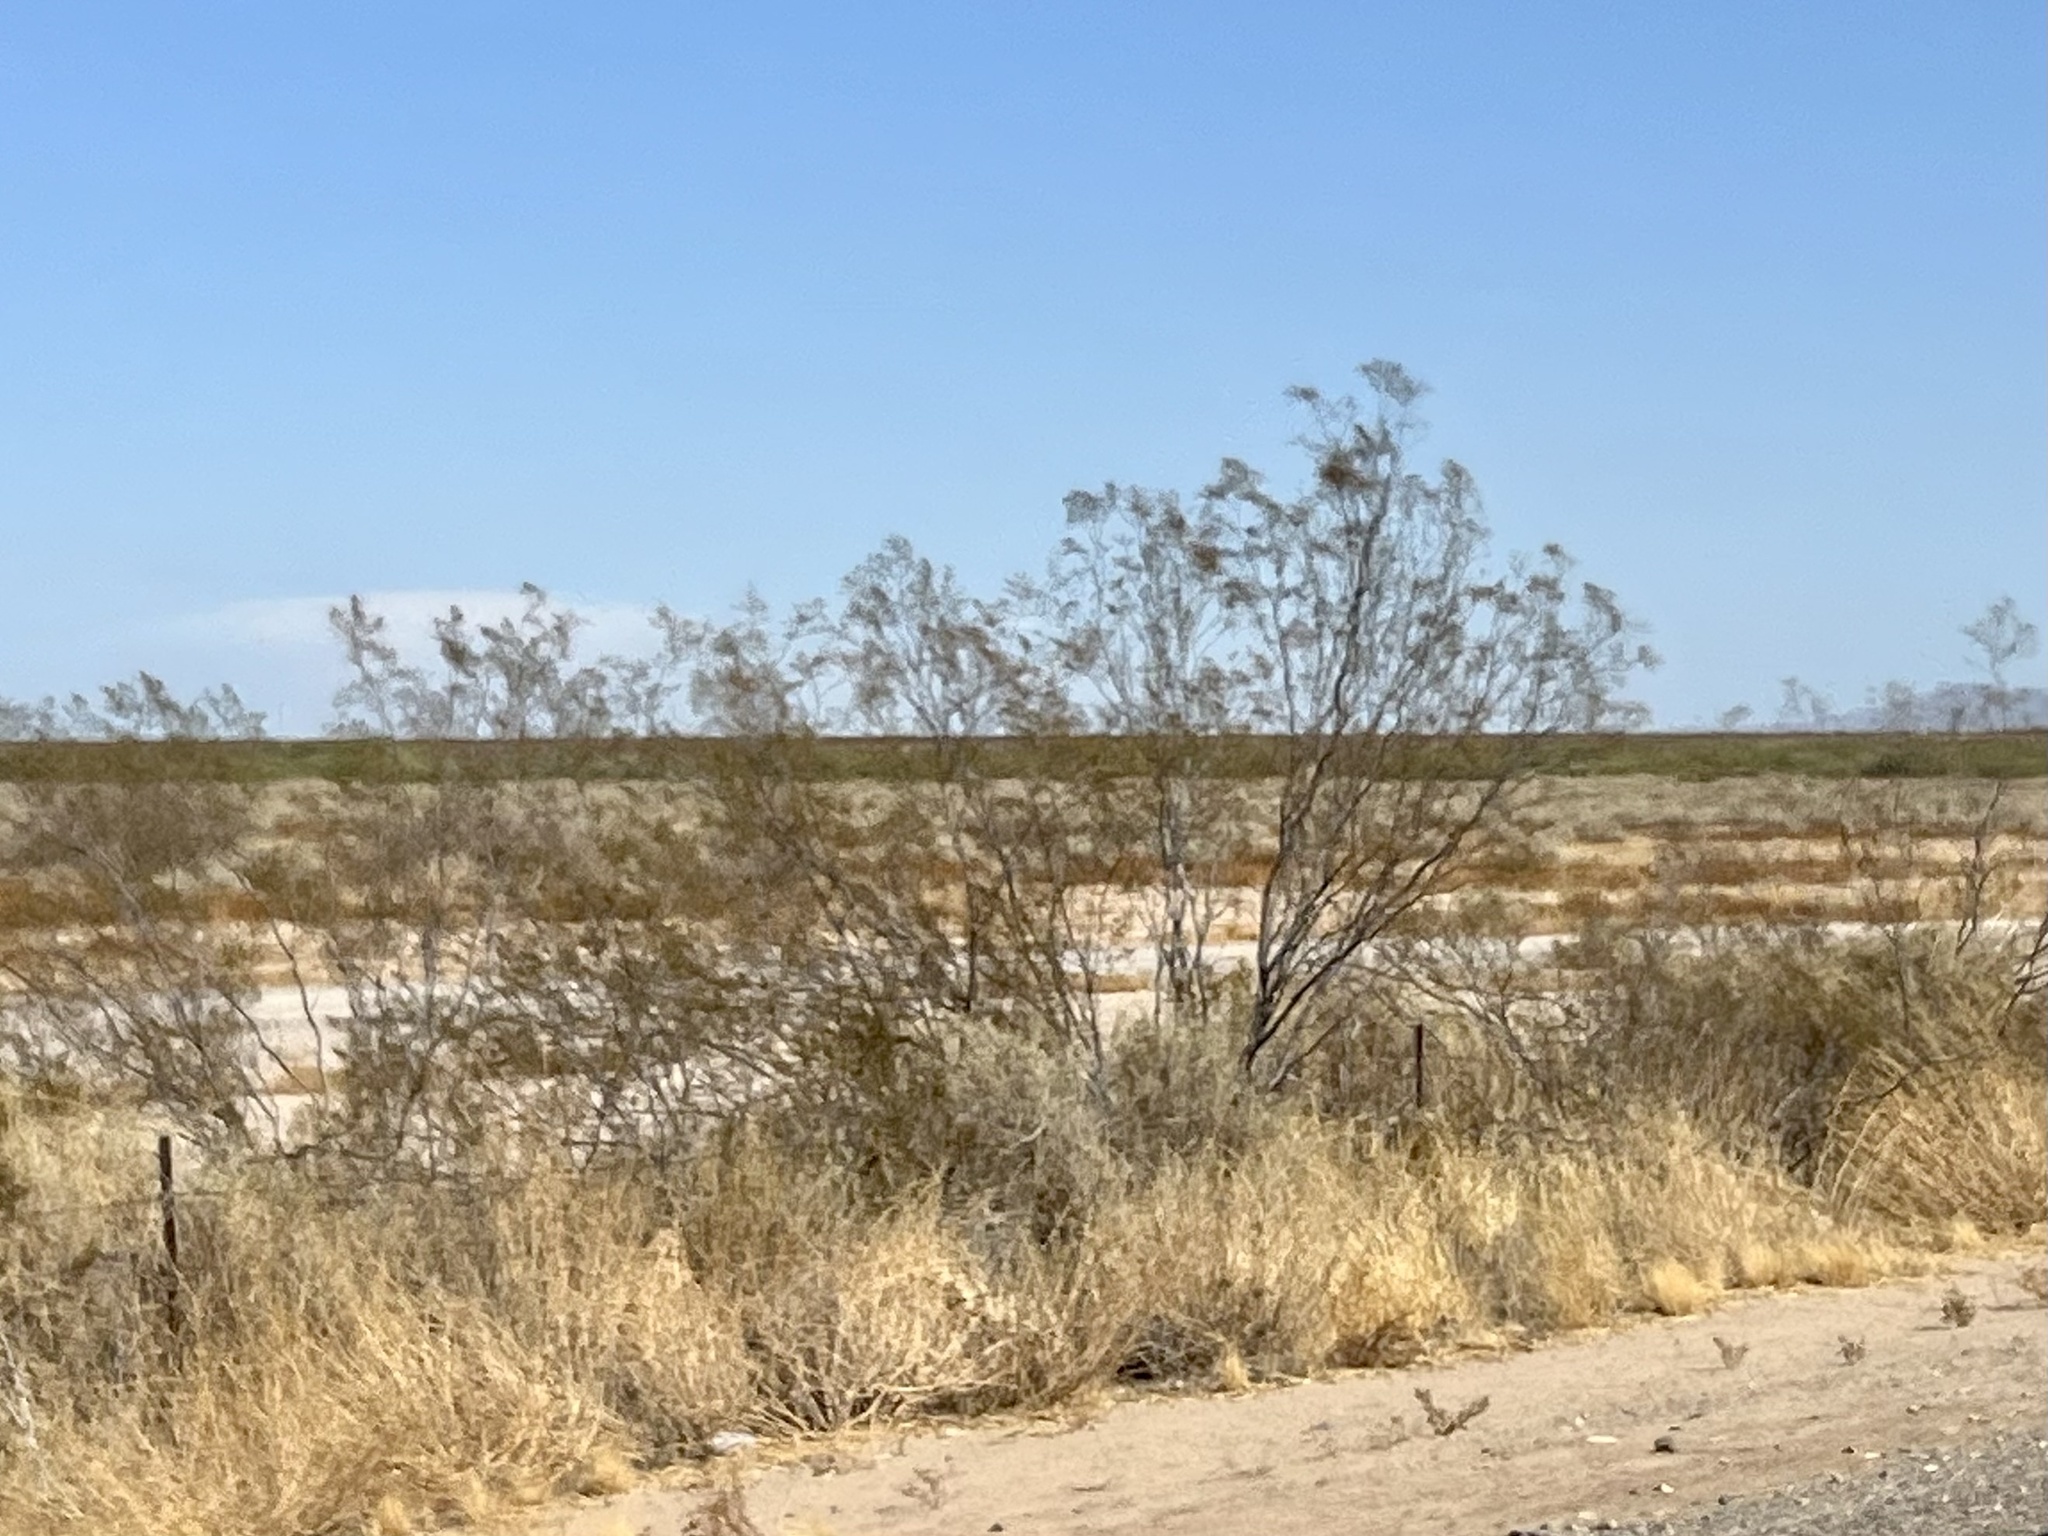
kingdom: Plantae
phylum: Tracheophyta
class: Magnoliopsida
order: Zygophyllales
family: Zygophyllaceae
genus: Larrea
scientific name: Larrea tridentata
